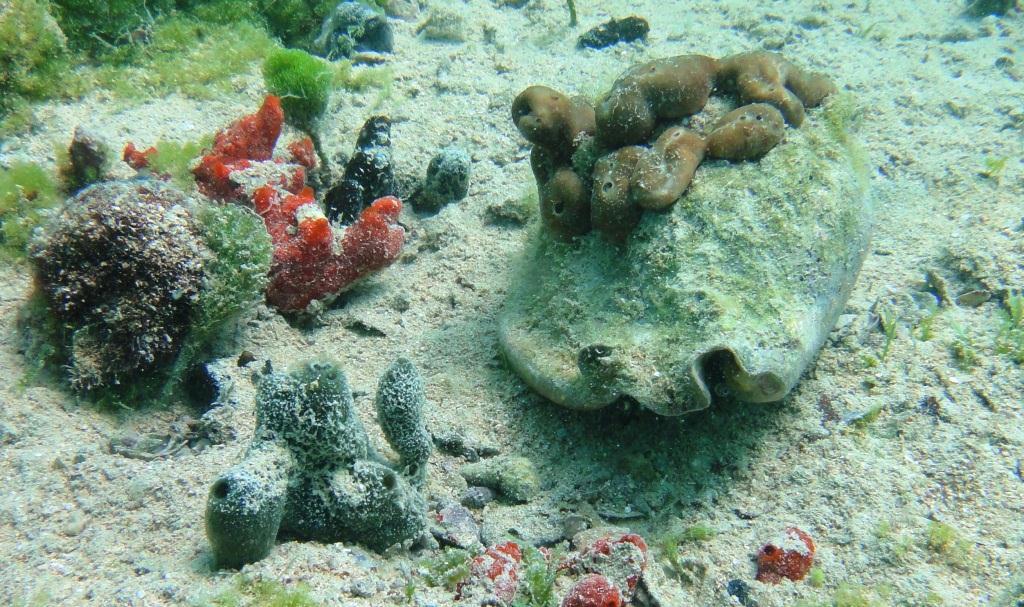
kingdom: Animalia
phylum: Mollusca
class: Gastropoda
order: Littorinimorpha
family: Strombidae
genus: Macrostrombus
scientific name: Macrostrombus costatus
